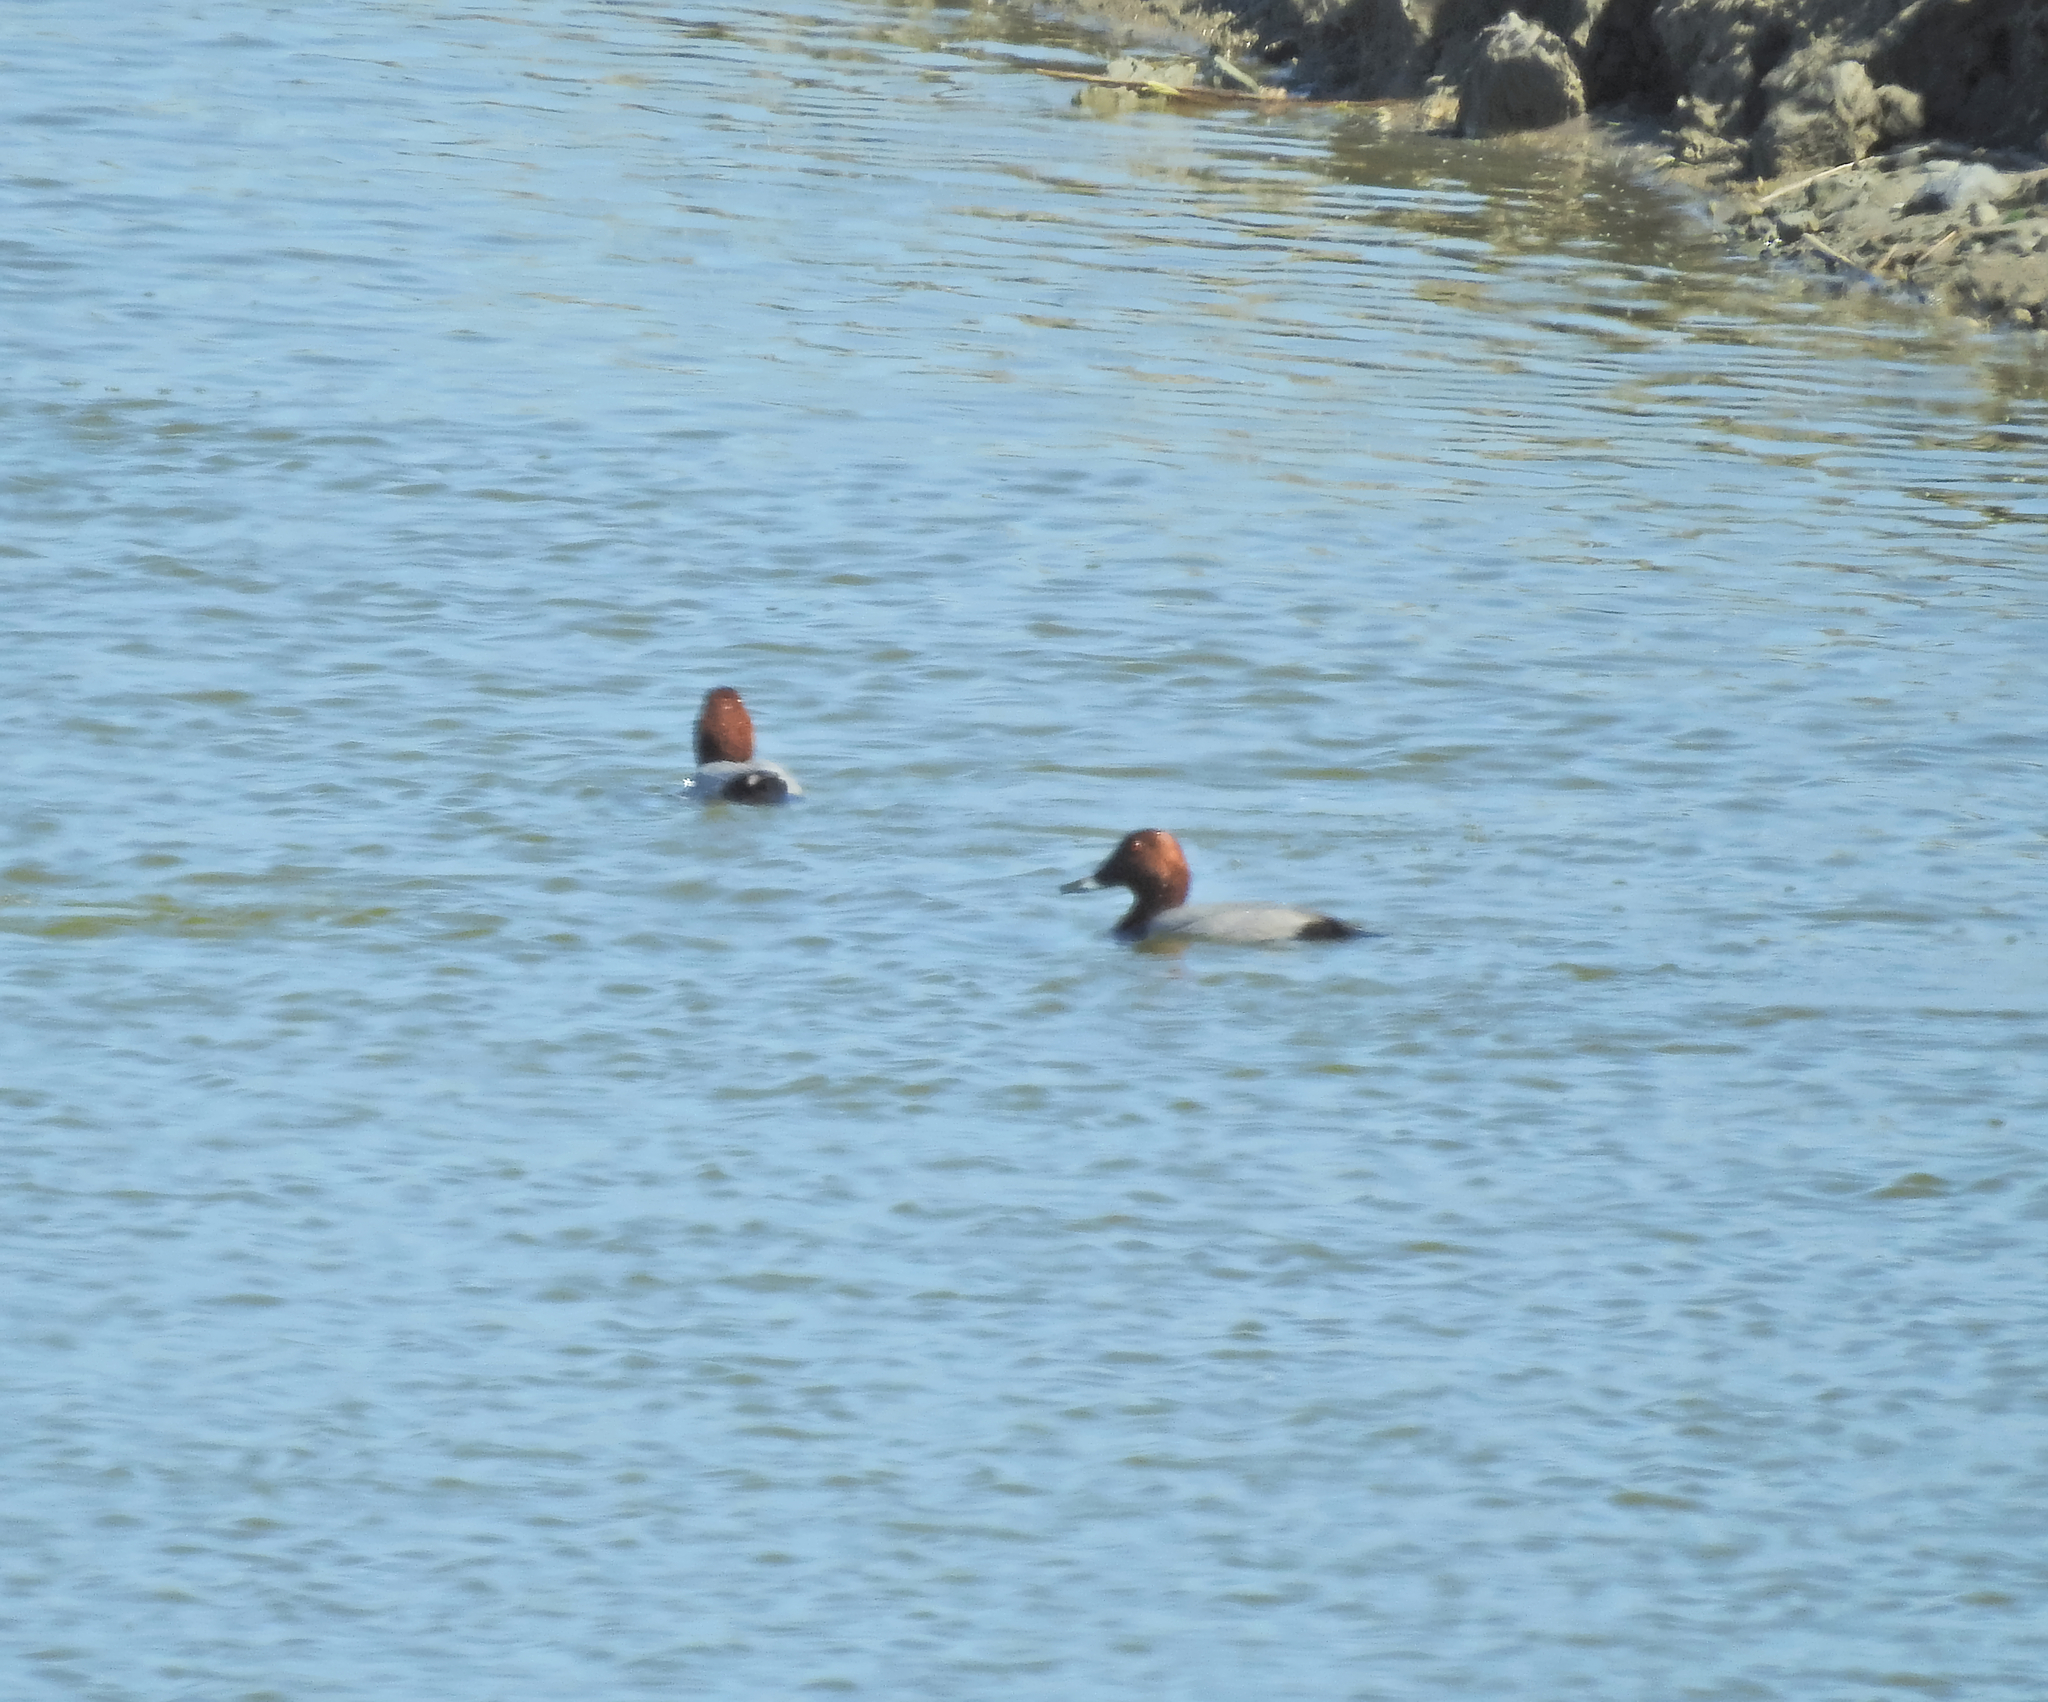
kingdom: Animalia
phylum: Chordata
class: Aves
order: Anseriformes
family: Anatidae
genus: Aythya
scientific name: Aythya ferina
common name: Common pochard
